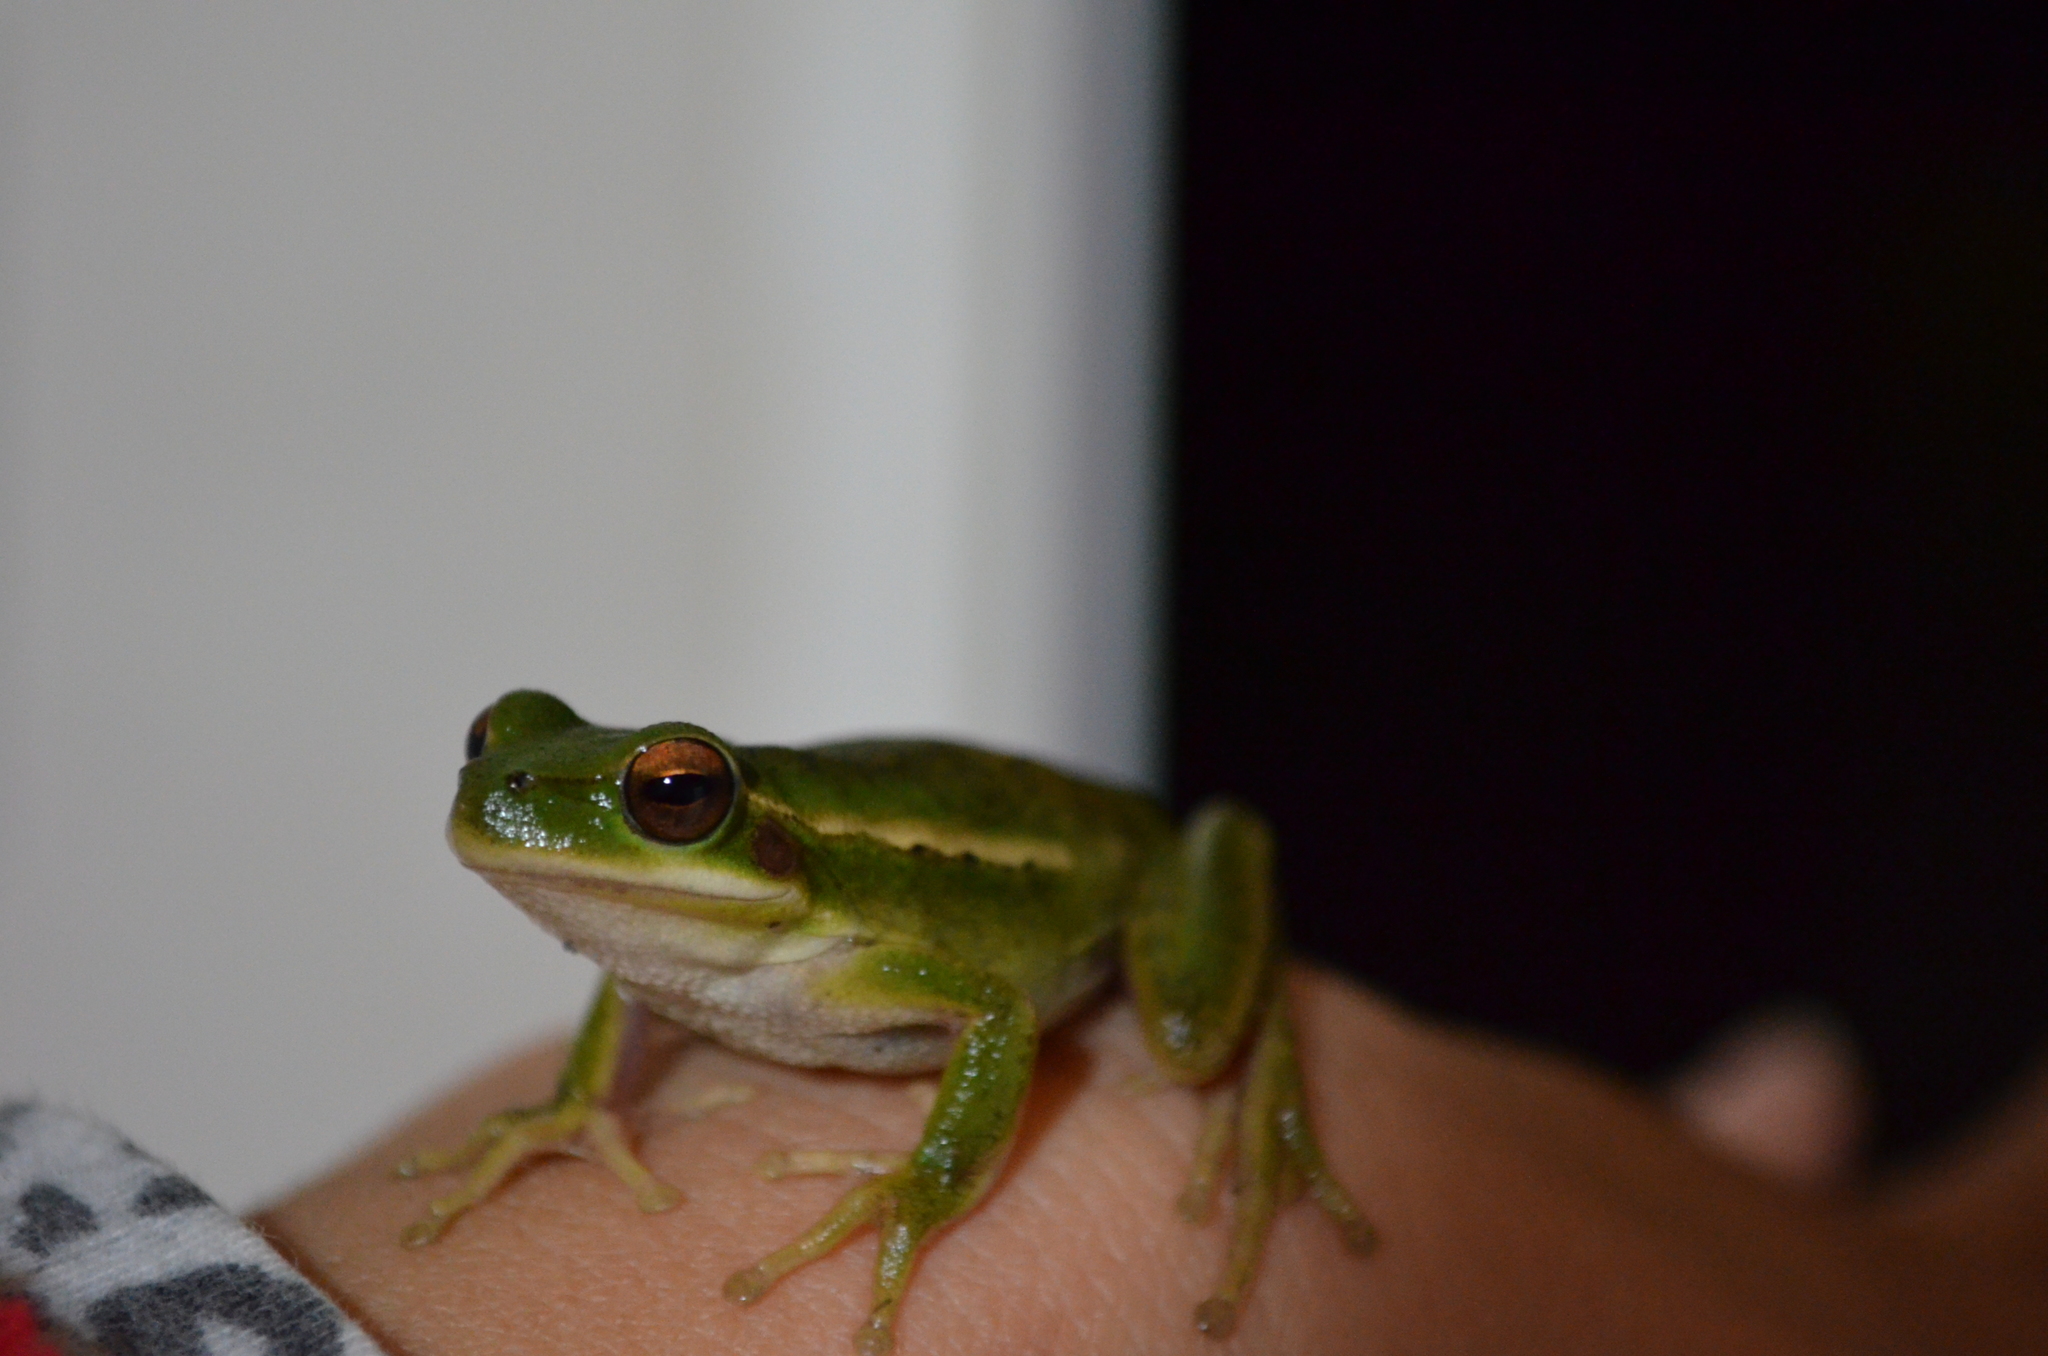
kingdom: Animalia
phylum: Chordata
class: Amphibia
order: Anura
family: Hylidae
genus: Boana
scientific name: Boana pulchella
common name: Montevideo treefrog
